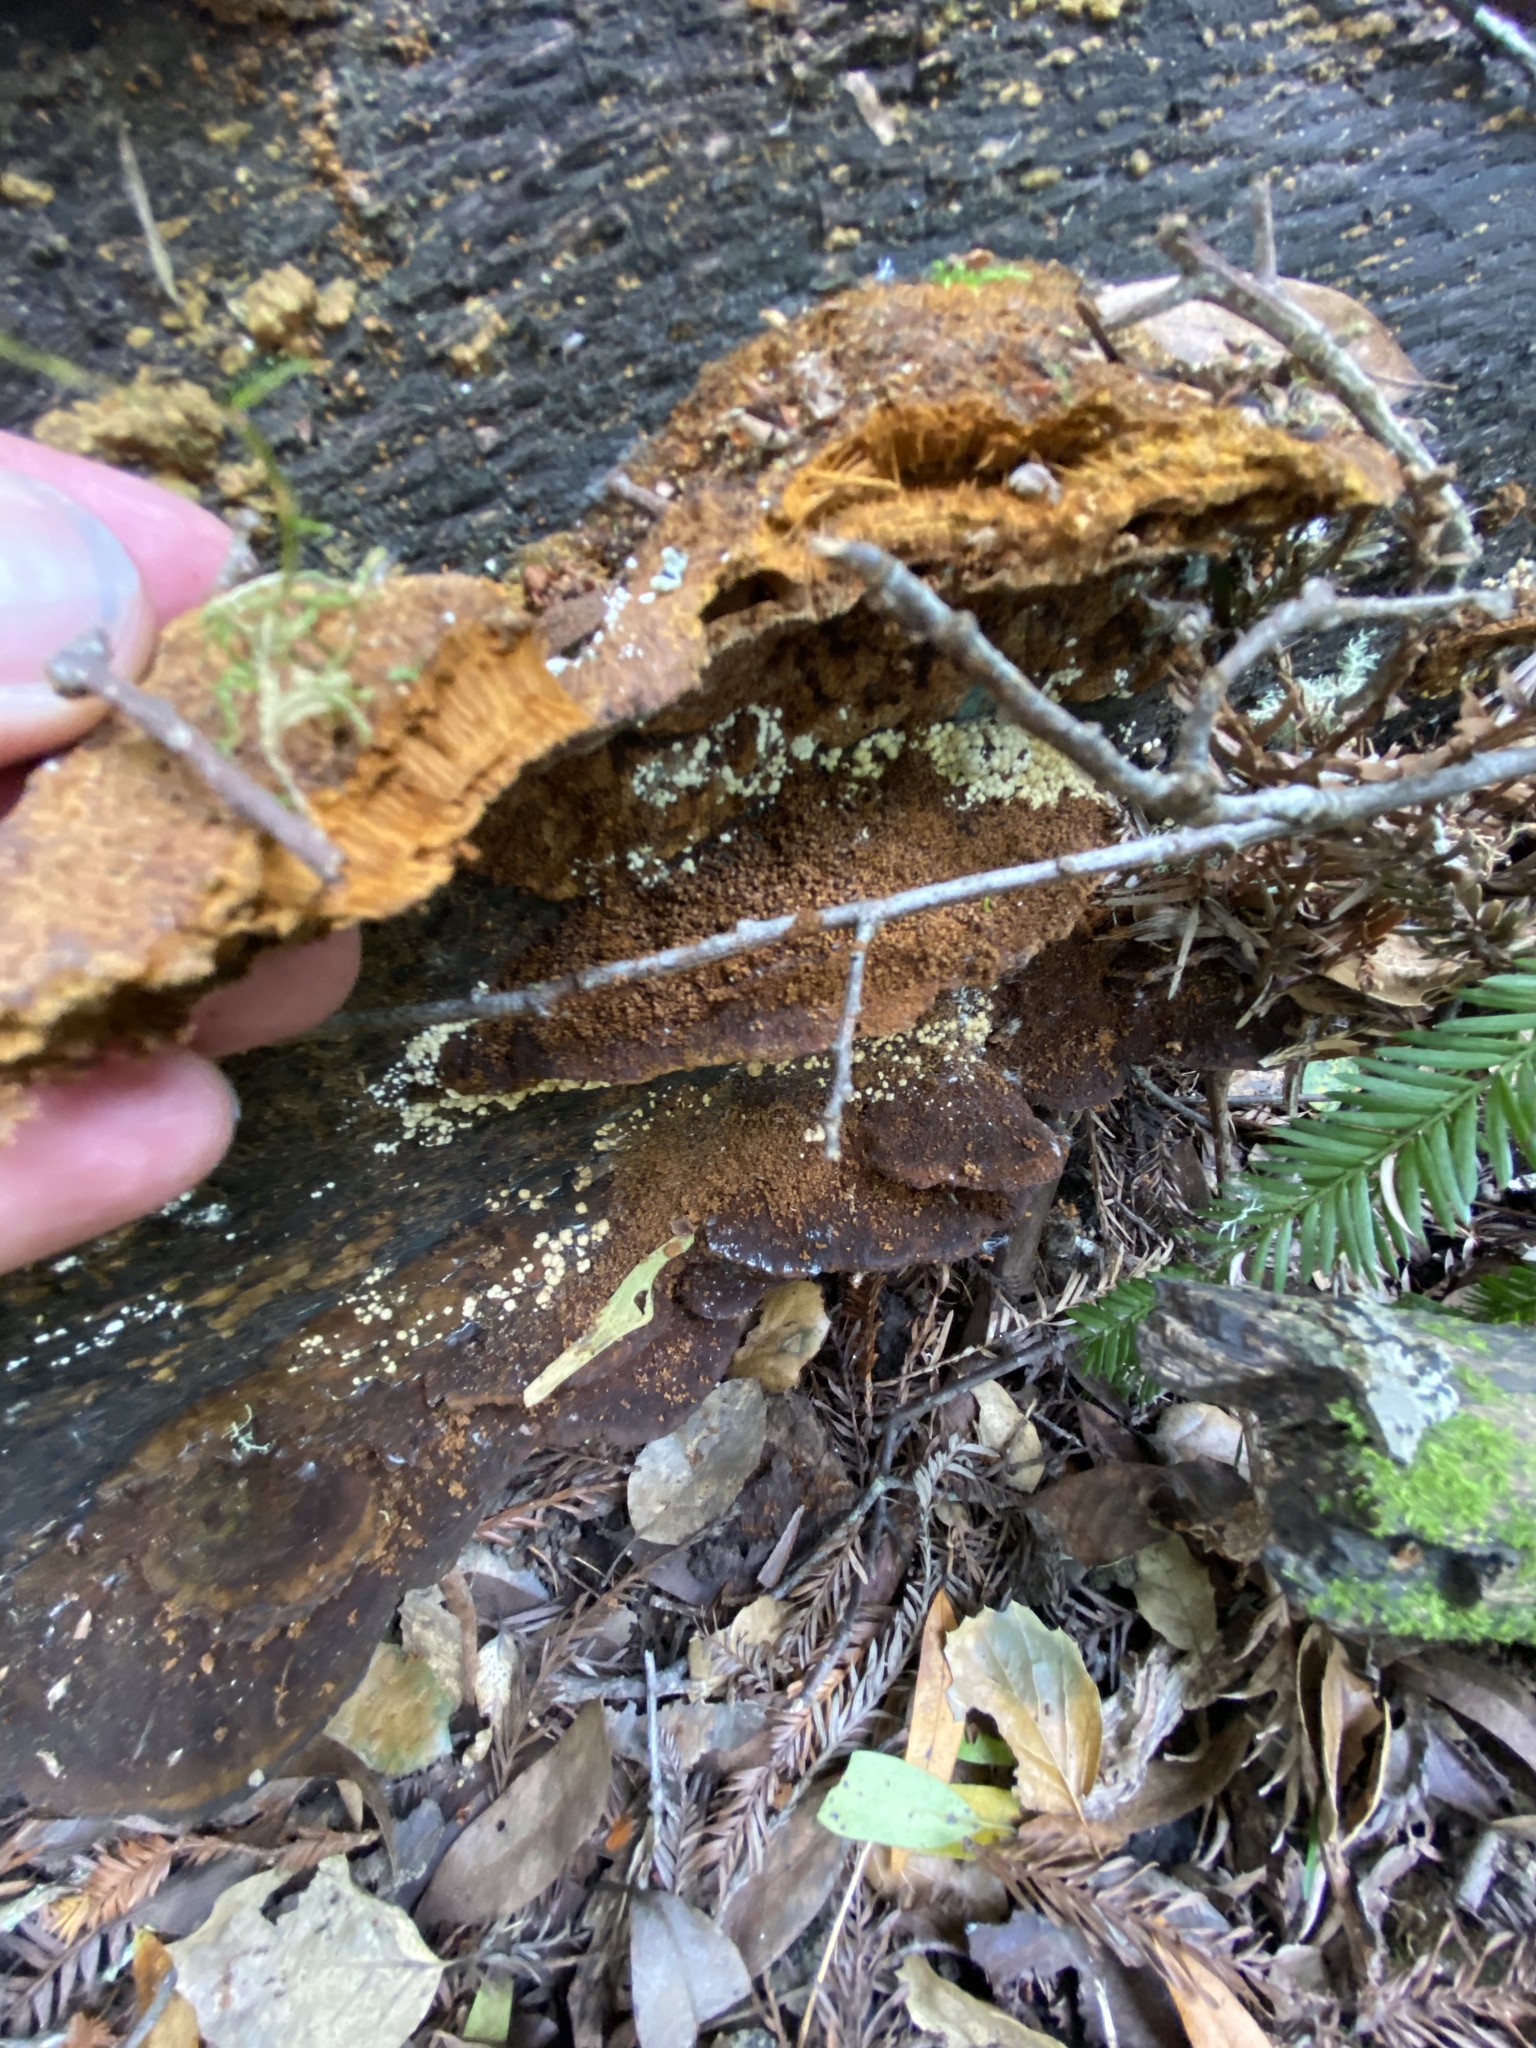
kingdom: Fungi
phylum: Basidiomycota
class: Agaricomycetes
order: Hymenochaetales
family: Hymenochaetaceae
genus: Phellinus
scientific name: Phellinus gilvus
